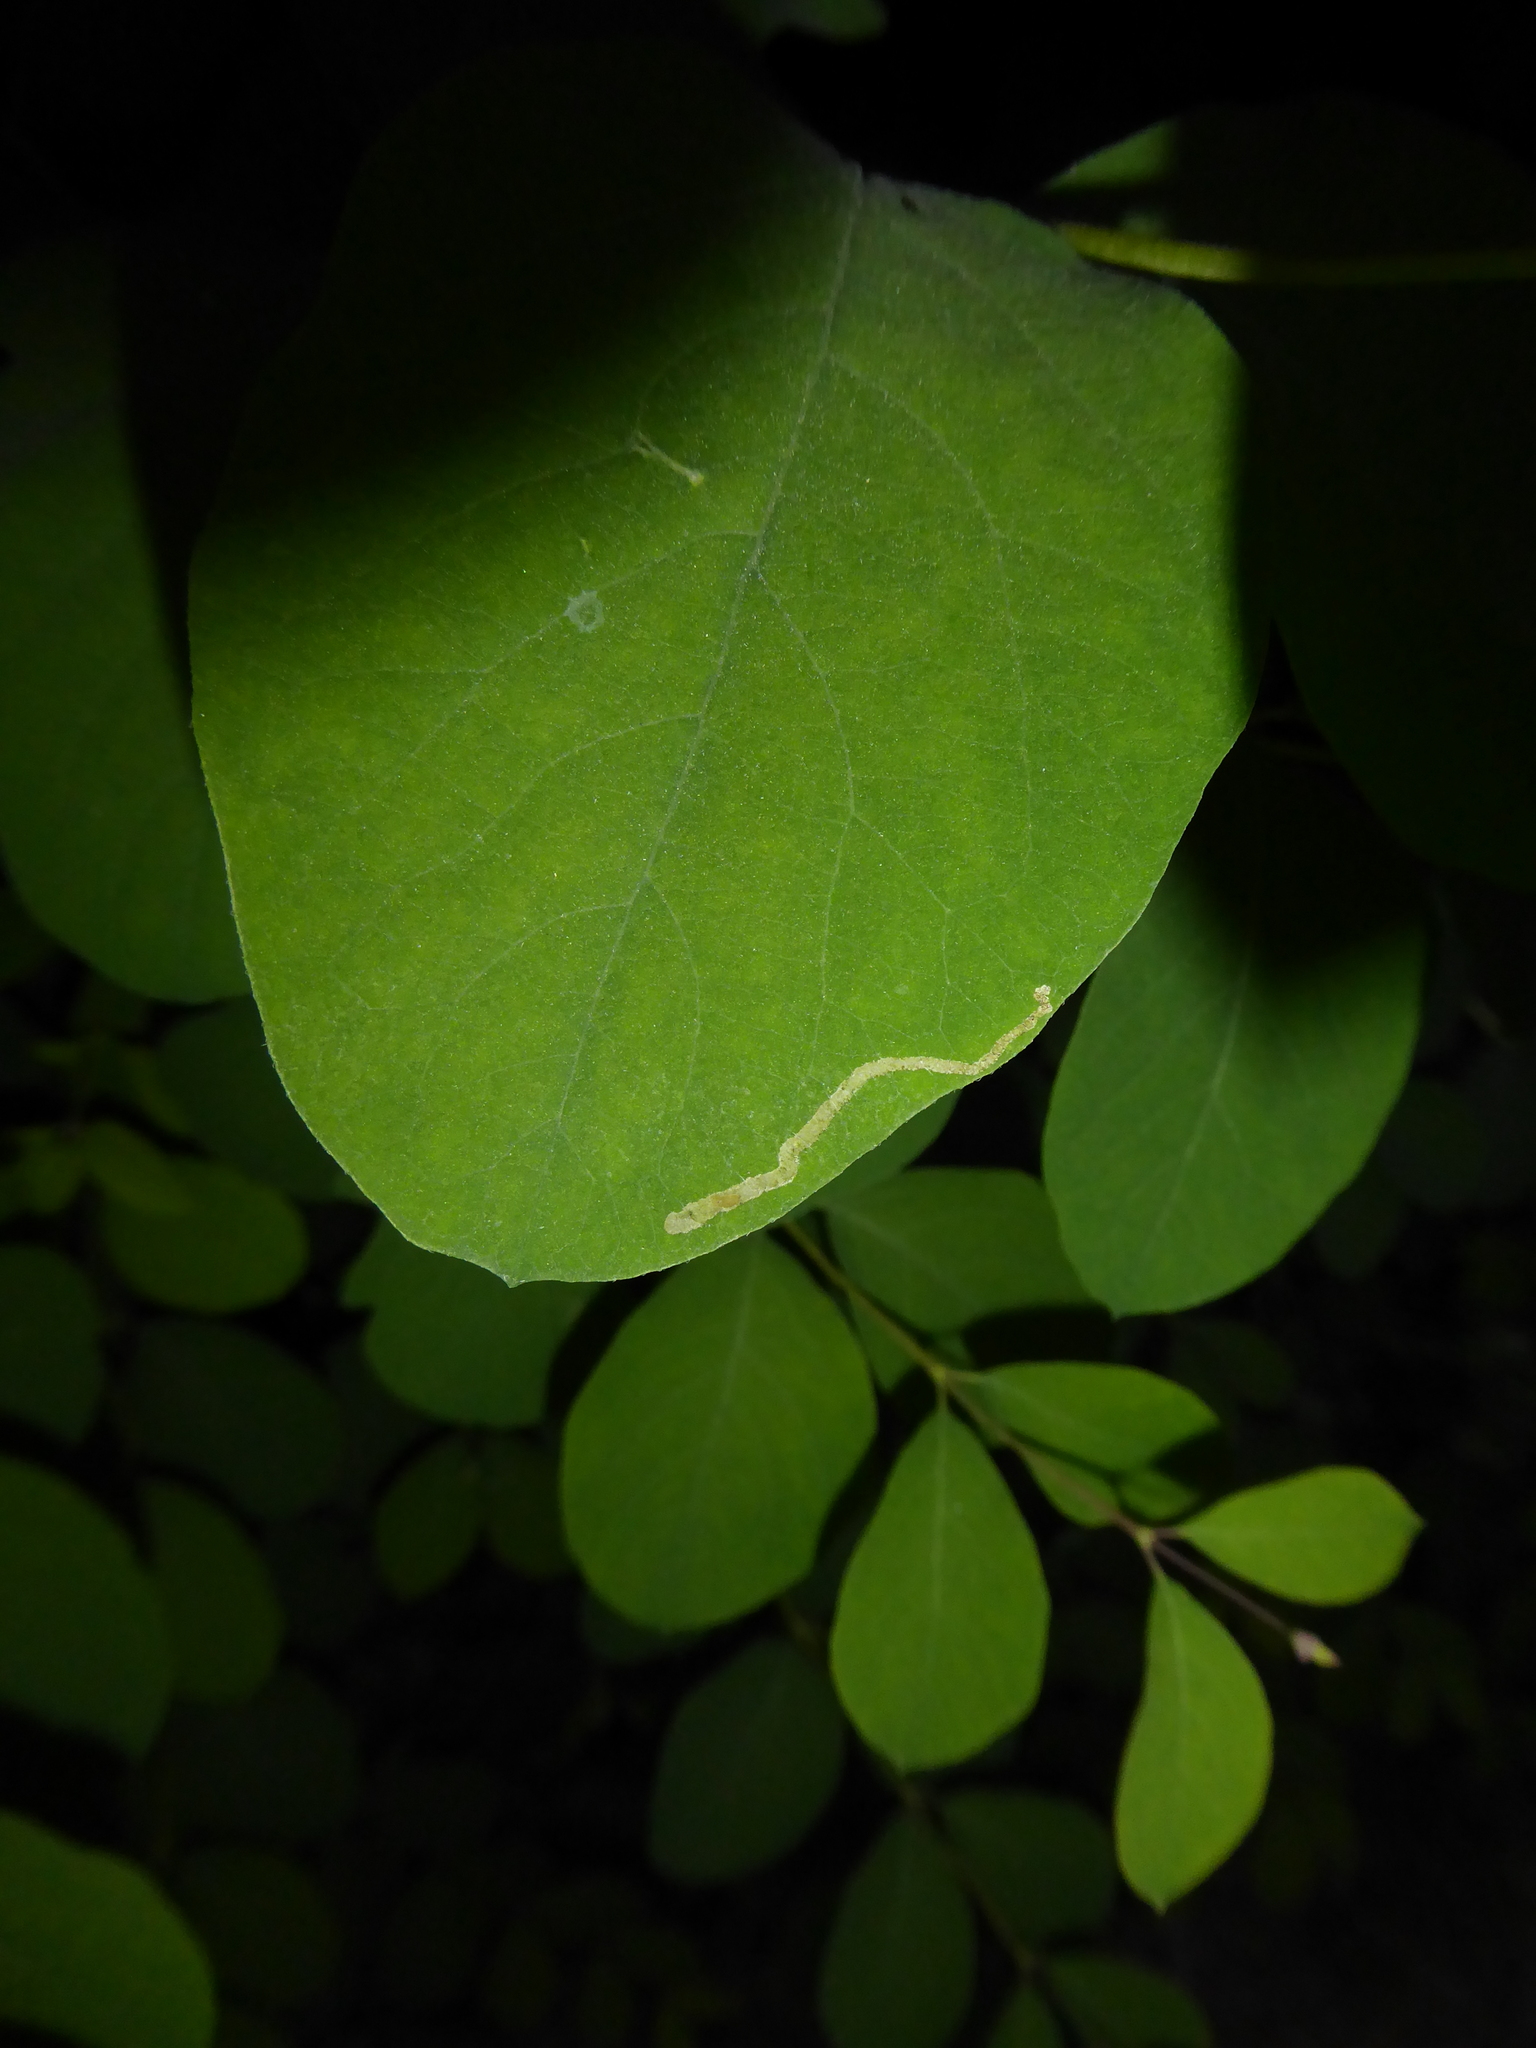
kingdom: Animalia
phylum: Arthropoda
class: Insecta
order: Diptera
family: Agromyzidae
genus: Aulagromyza
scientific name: Aulagromyza
